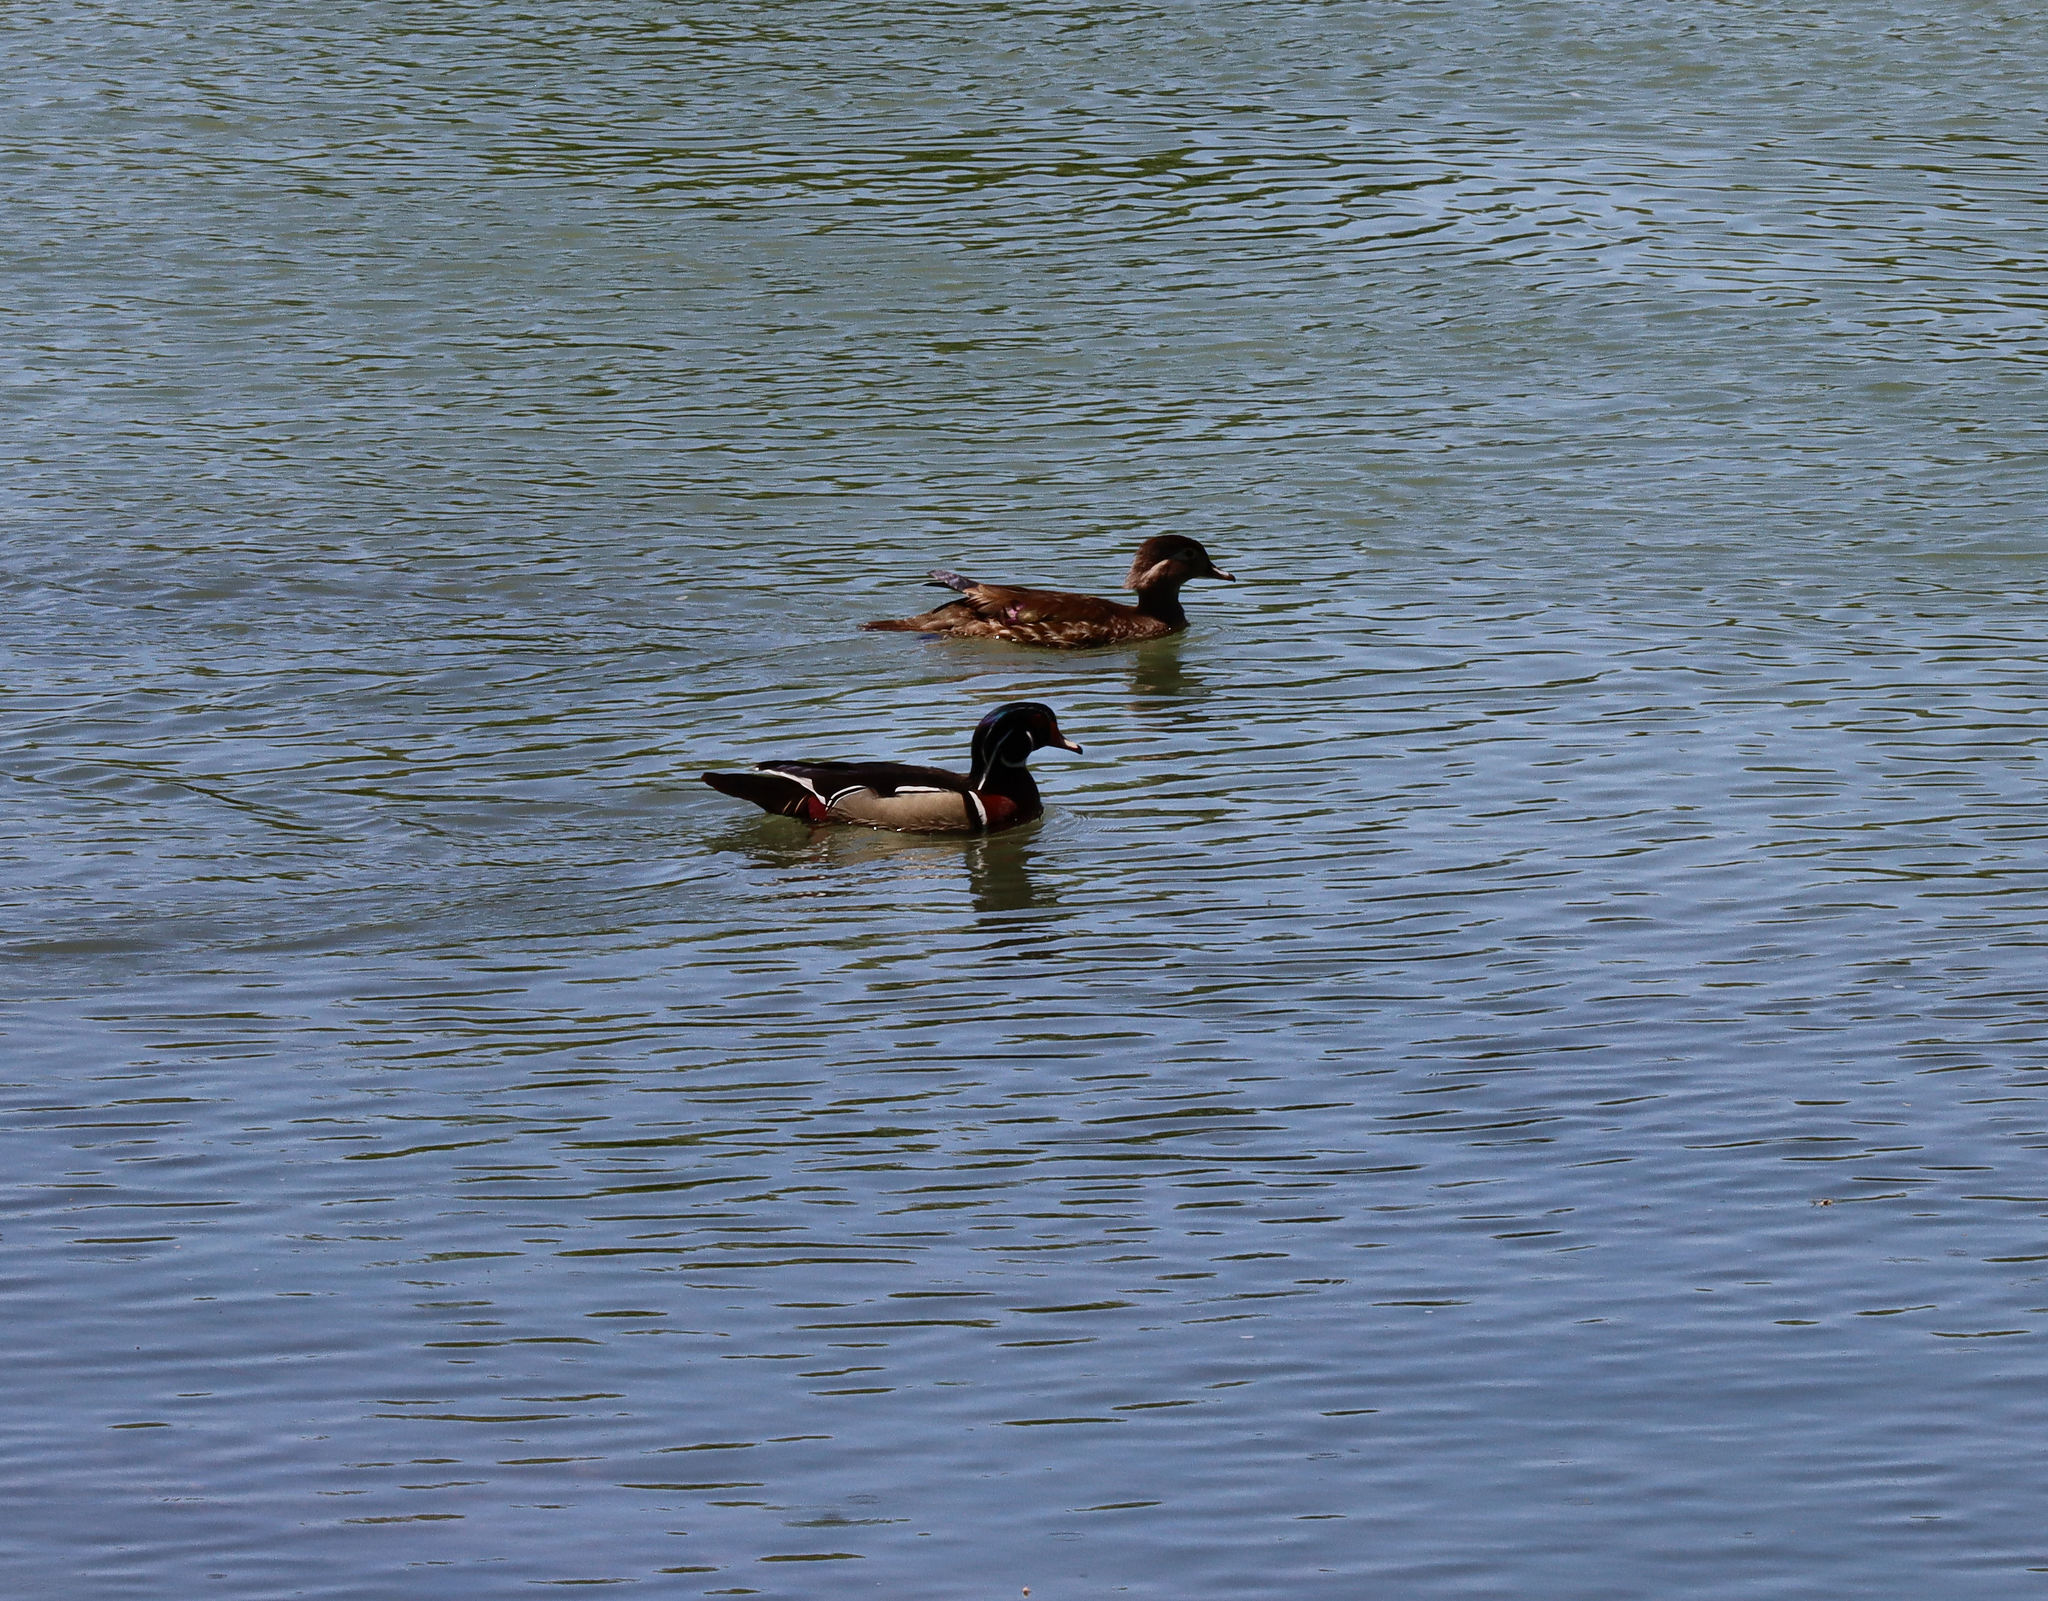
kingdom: Animalia
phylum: Chordata
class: Aves
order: Anseriformes
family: Anatidae
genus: Aix
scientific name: Aix sponsa
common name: Wood duck
